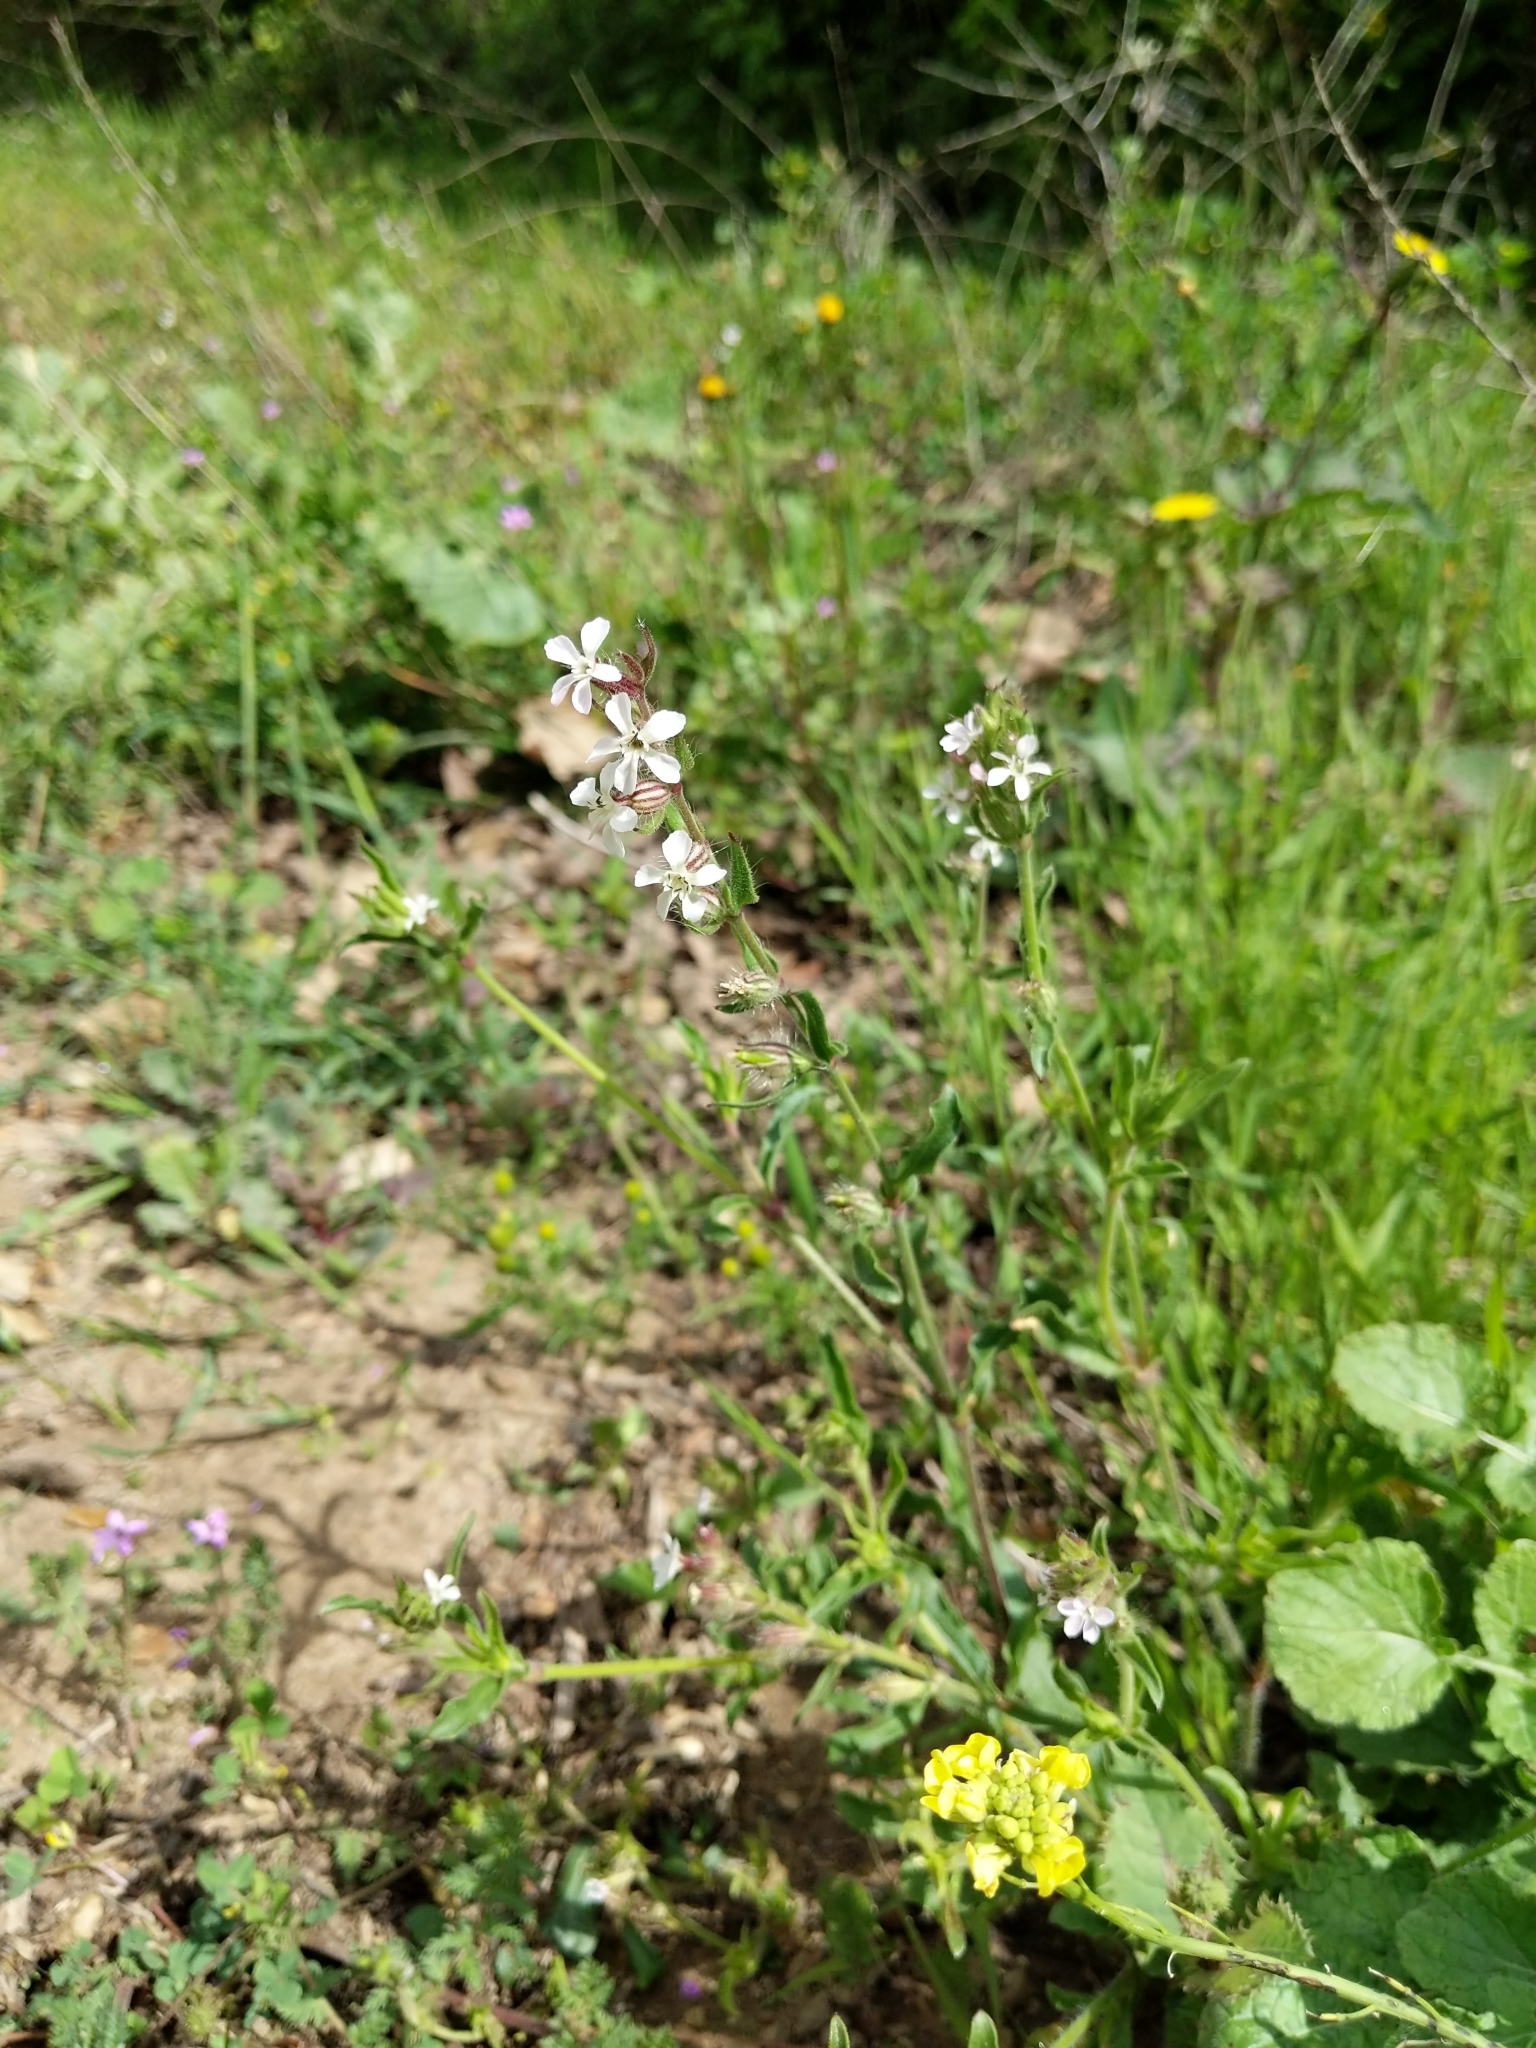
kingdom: Plantae
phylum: Tracheophyta
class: Magnoliopsida
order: Caryophyllales
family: Caryophyllaceae
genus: Silene
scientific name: Silene gallica
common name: Small-flowered catchfly
